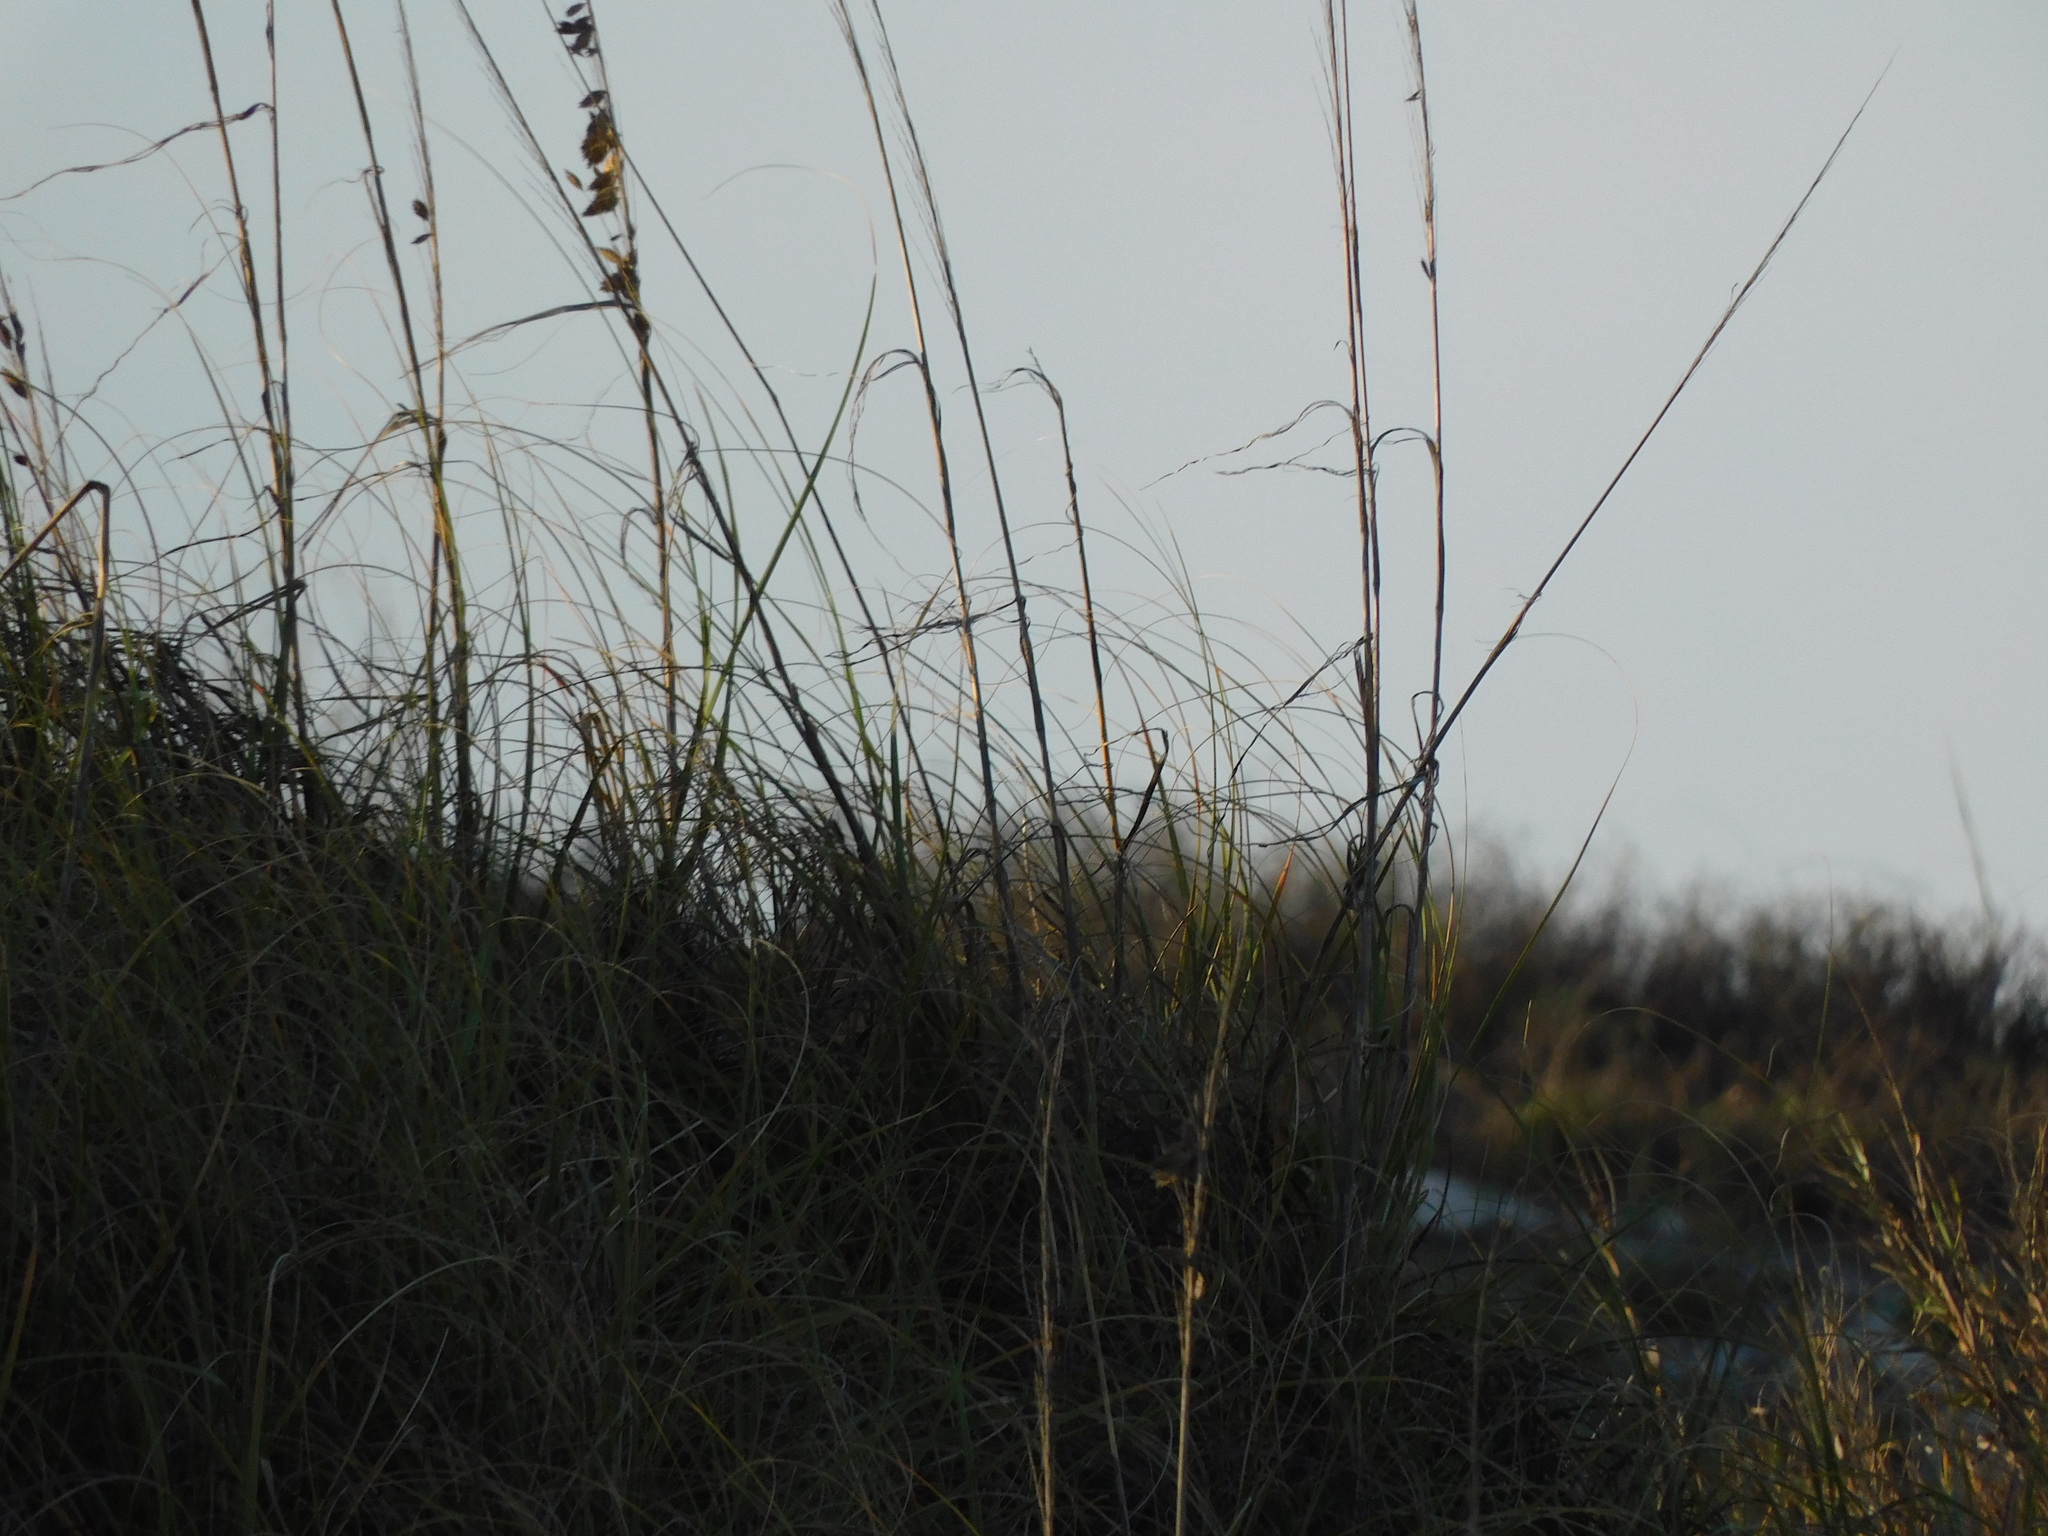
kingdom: Plantae
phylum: Tracheophyta
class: Liliopsida
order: Poales
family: Poaceae
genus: Uniola
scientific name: Uniola paniculata
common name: Seaside-oats
